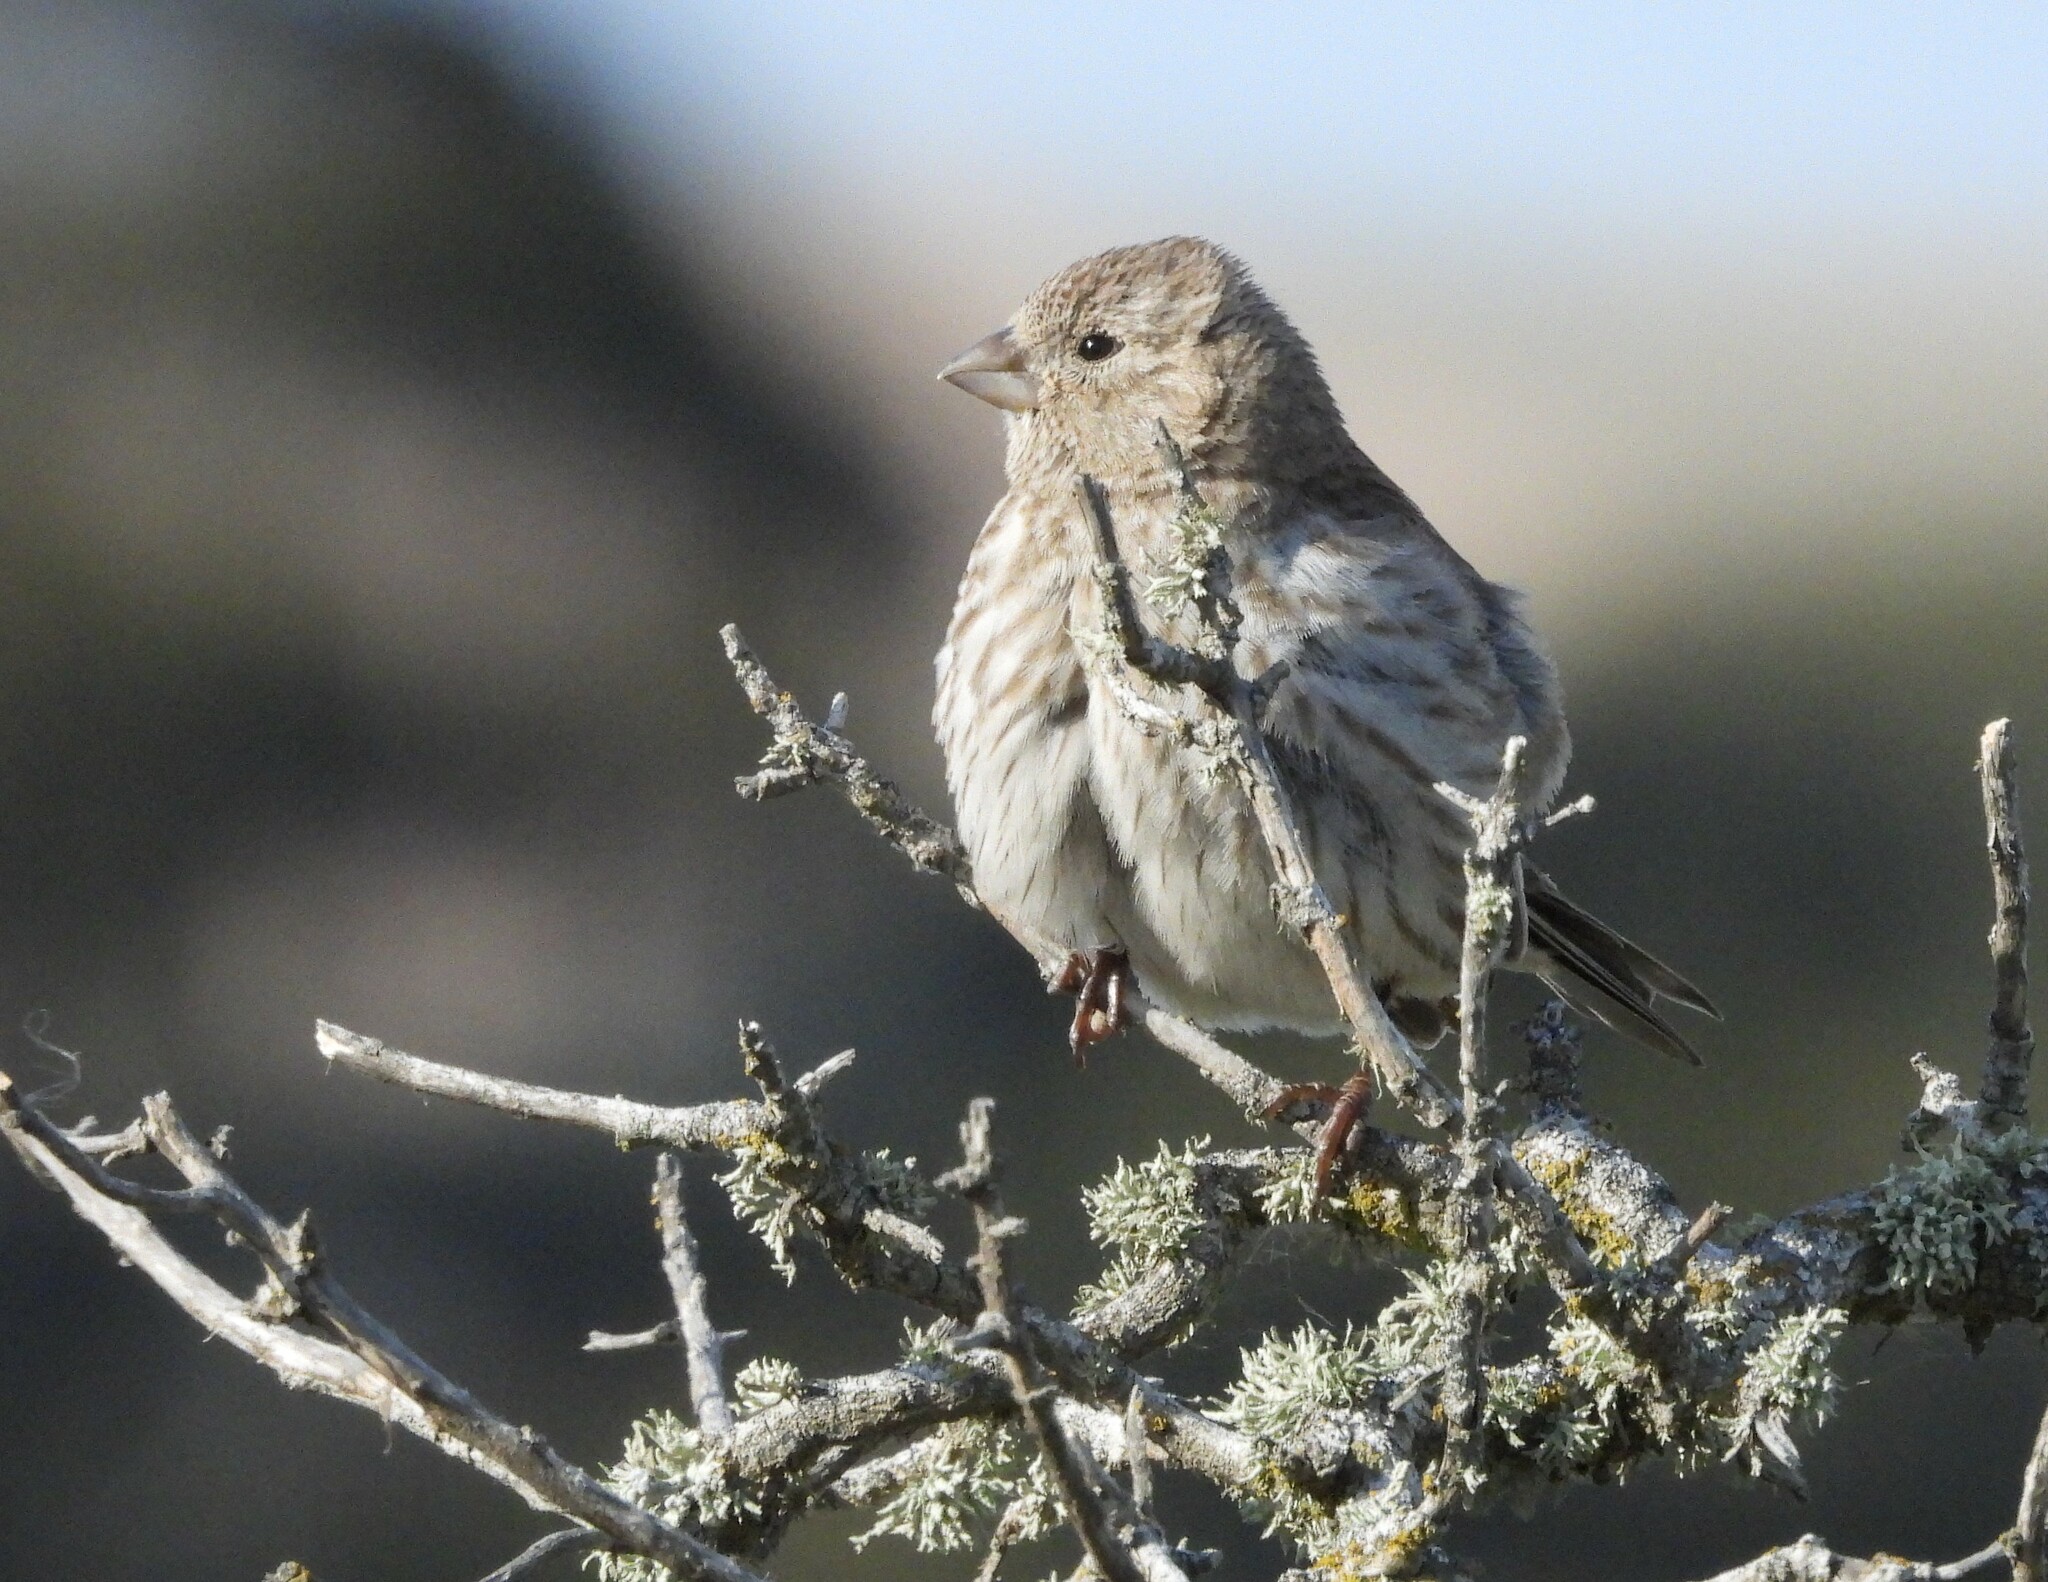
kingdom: Animalia
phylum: Chordata
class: Aves
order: Passeriformes
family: Fringillidae
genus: Haemorhous
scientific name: Haemorhous mexicanus
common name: House finch
